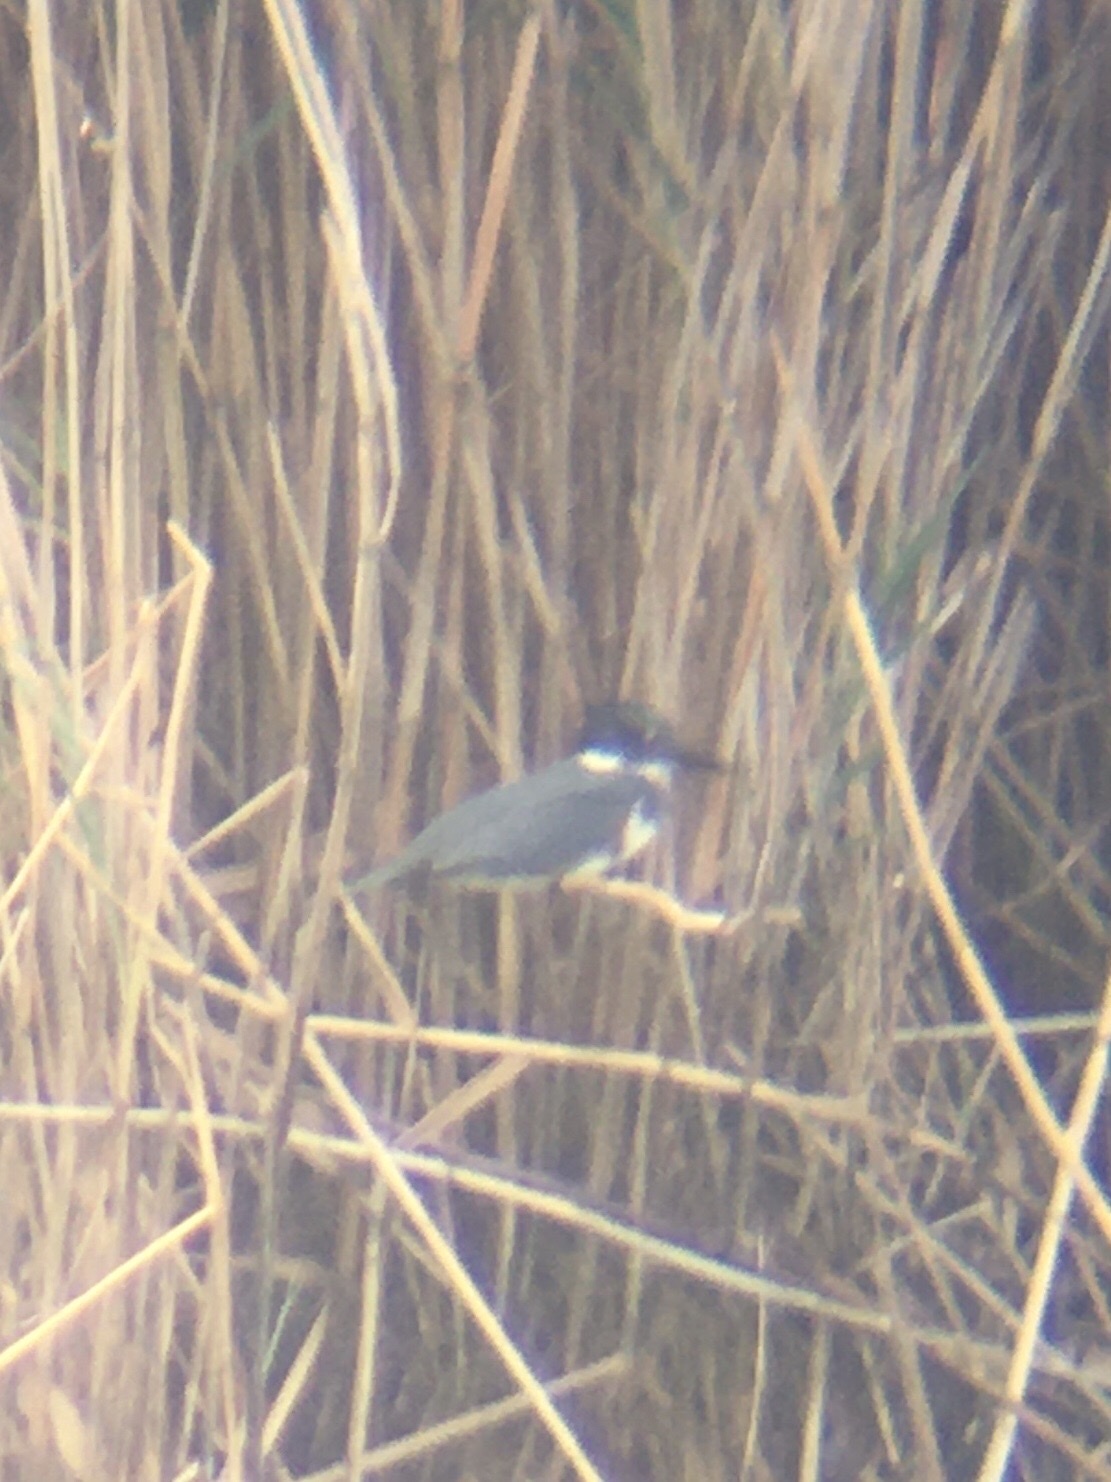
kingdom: Animalia
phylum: Chordata
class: Aves
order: Coraciiformes
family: Alcedinidae
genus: Megaceryle
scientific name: Megaceryle alcyon
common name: Belted kingfisher
